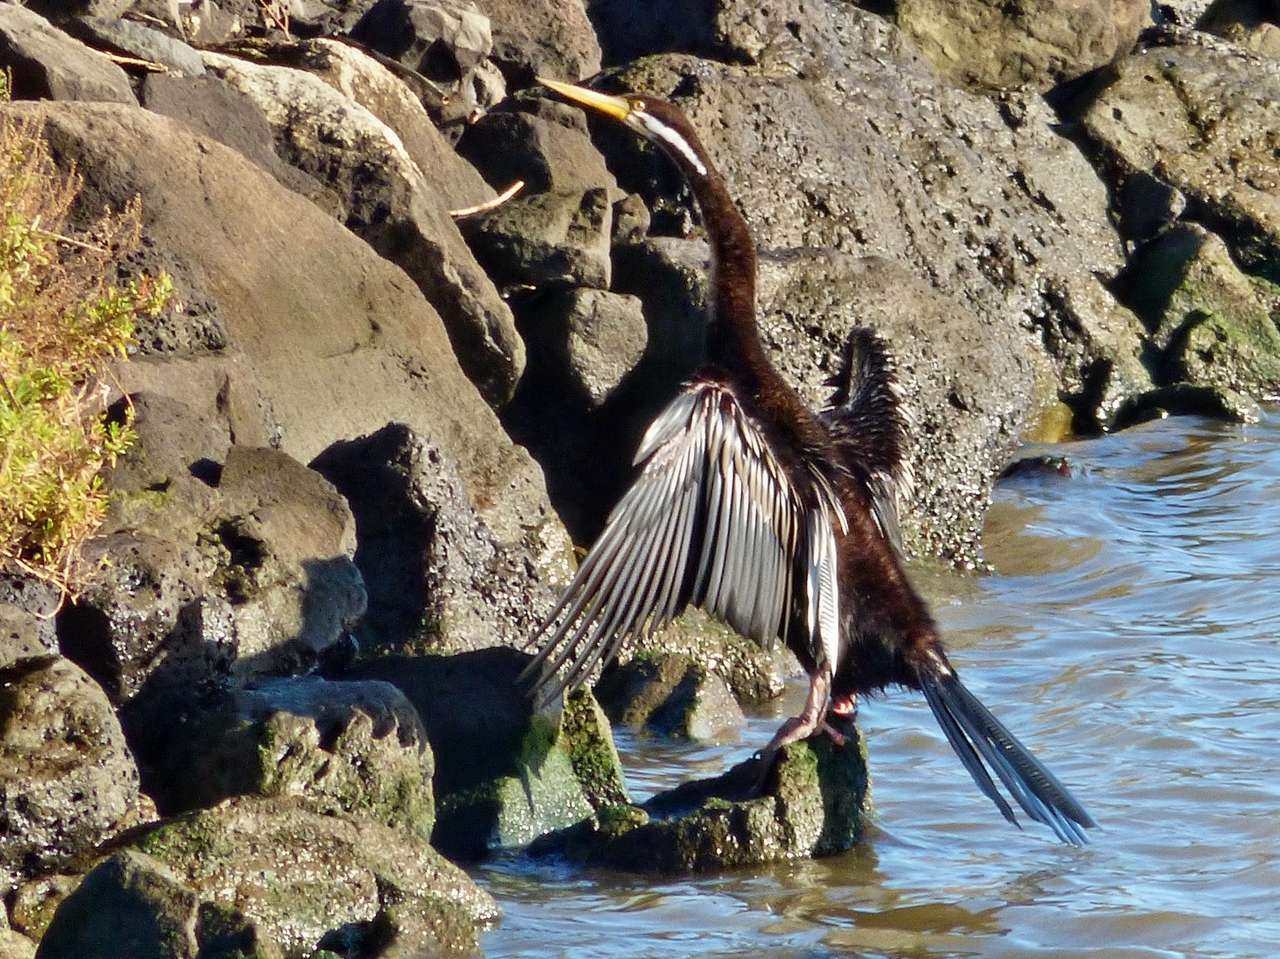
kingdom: Animalia
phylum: Chordata
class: Aves
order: Suliformes
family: Anhingidae
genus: Anhinga
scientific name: Anhinga novaehollandiae
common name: Australasian darter
